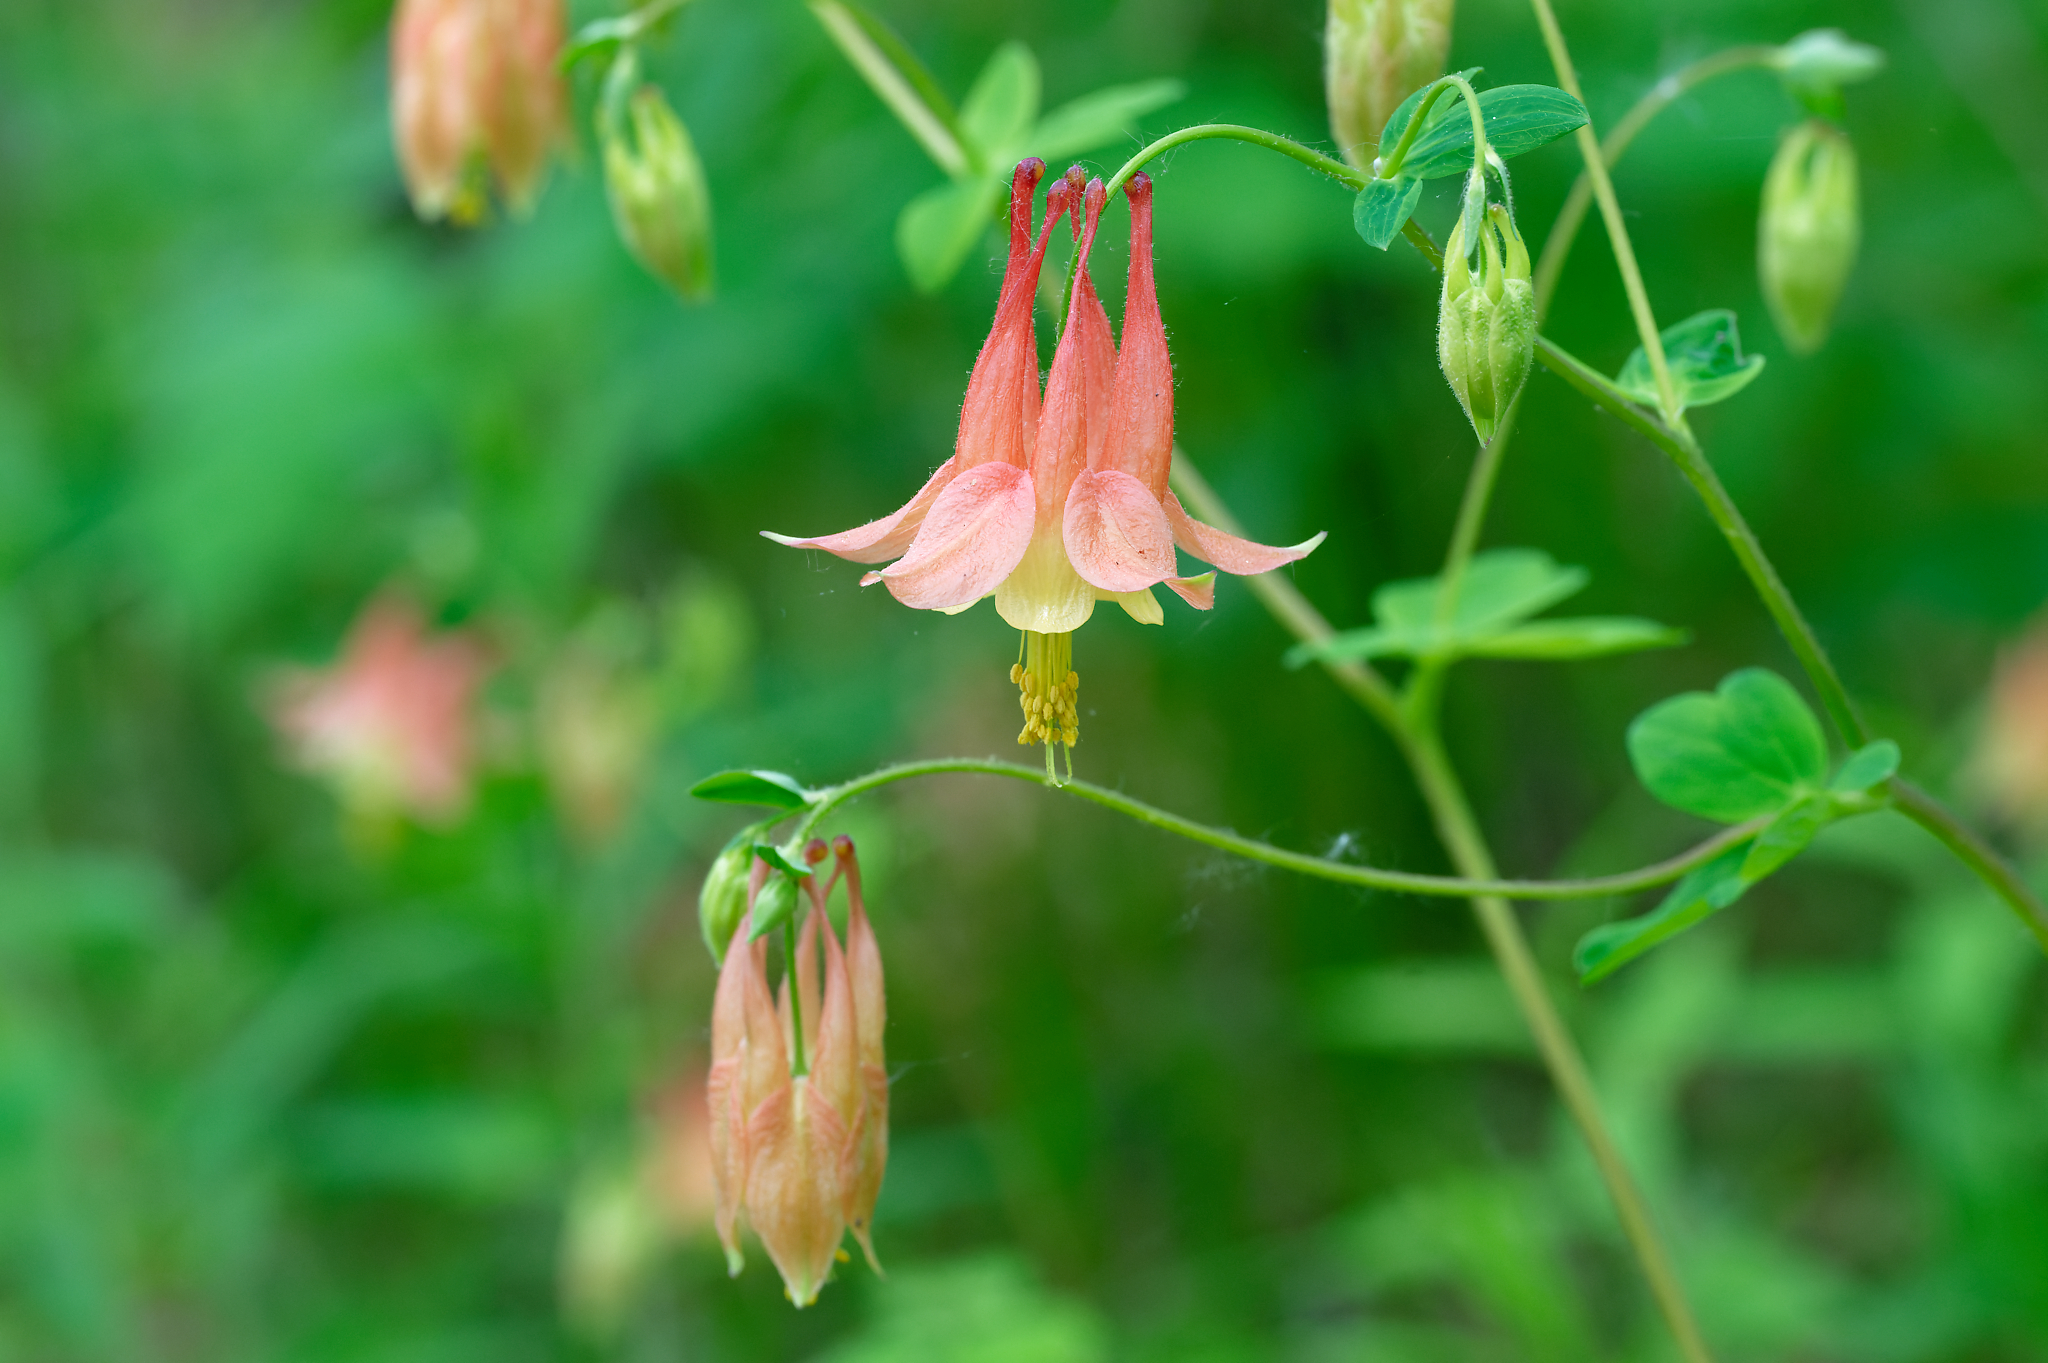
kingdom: Plantae
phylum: Tracheophyta
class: Magnoliopsida
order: Ranunculales
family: Ranunculaceae
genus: Aquilegia
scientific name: Aquilegia canadensis
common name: American columbine
